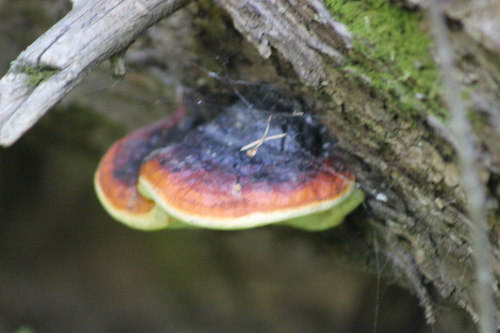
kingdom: Fungi
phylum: Basidiomycota
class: Agaricomycetes
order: Polyporales
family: Fomitopsidaceae
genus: Fomitopsis
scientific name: Fomitopsis pinicola
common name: Red-belted bracket
